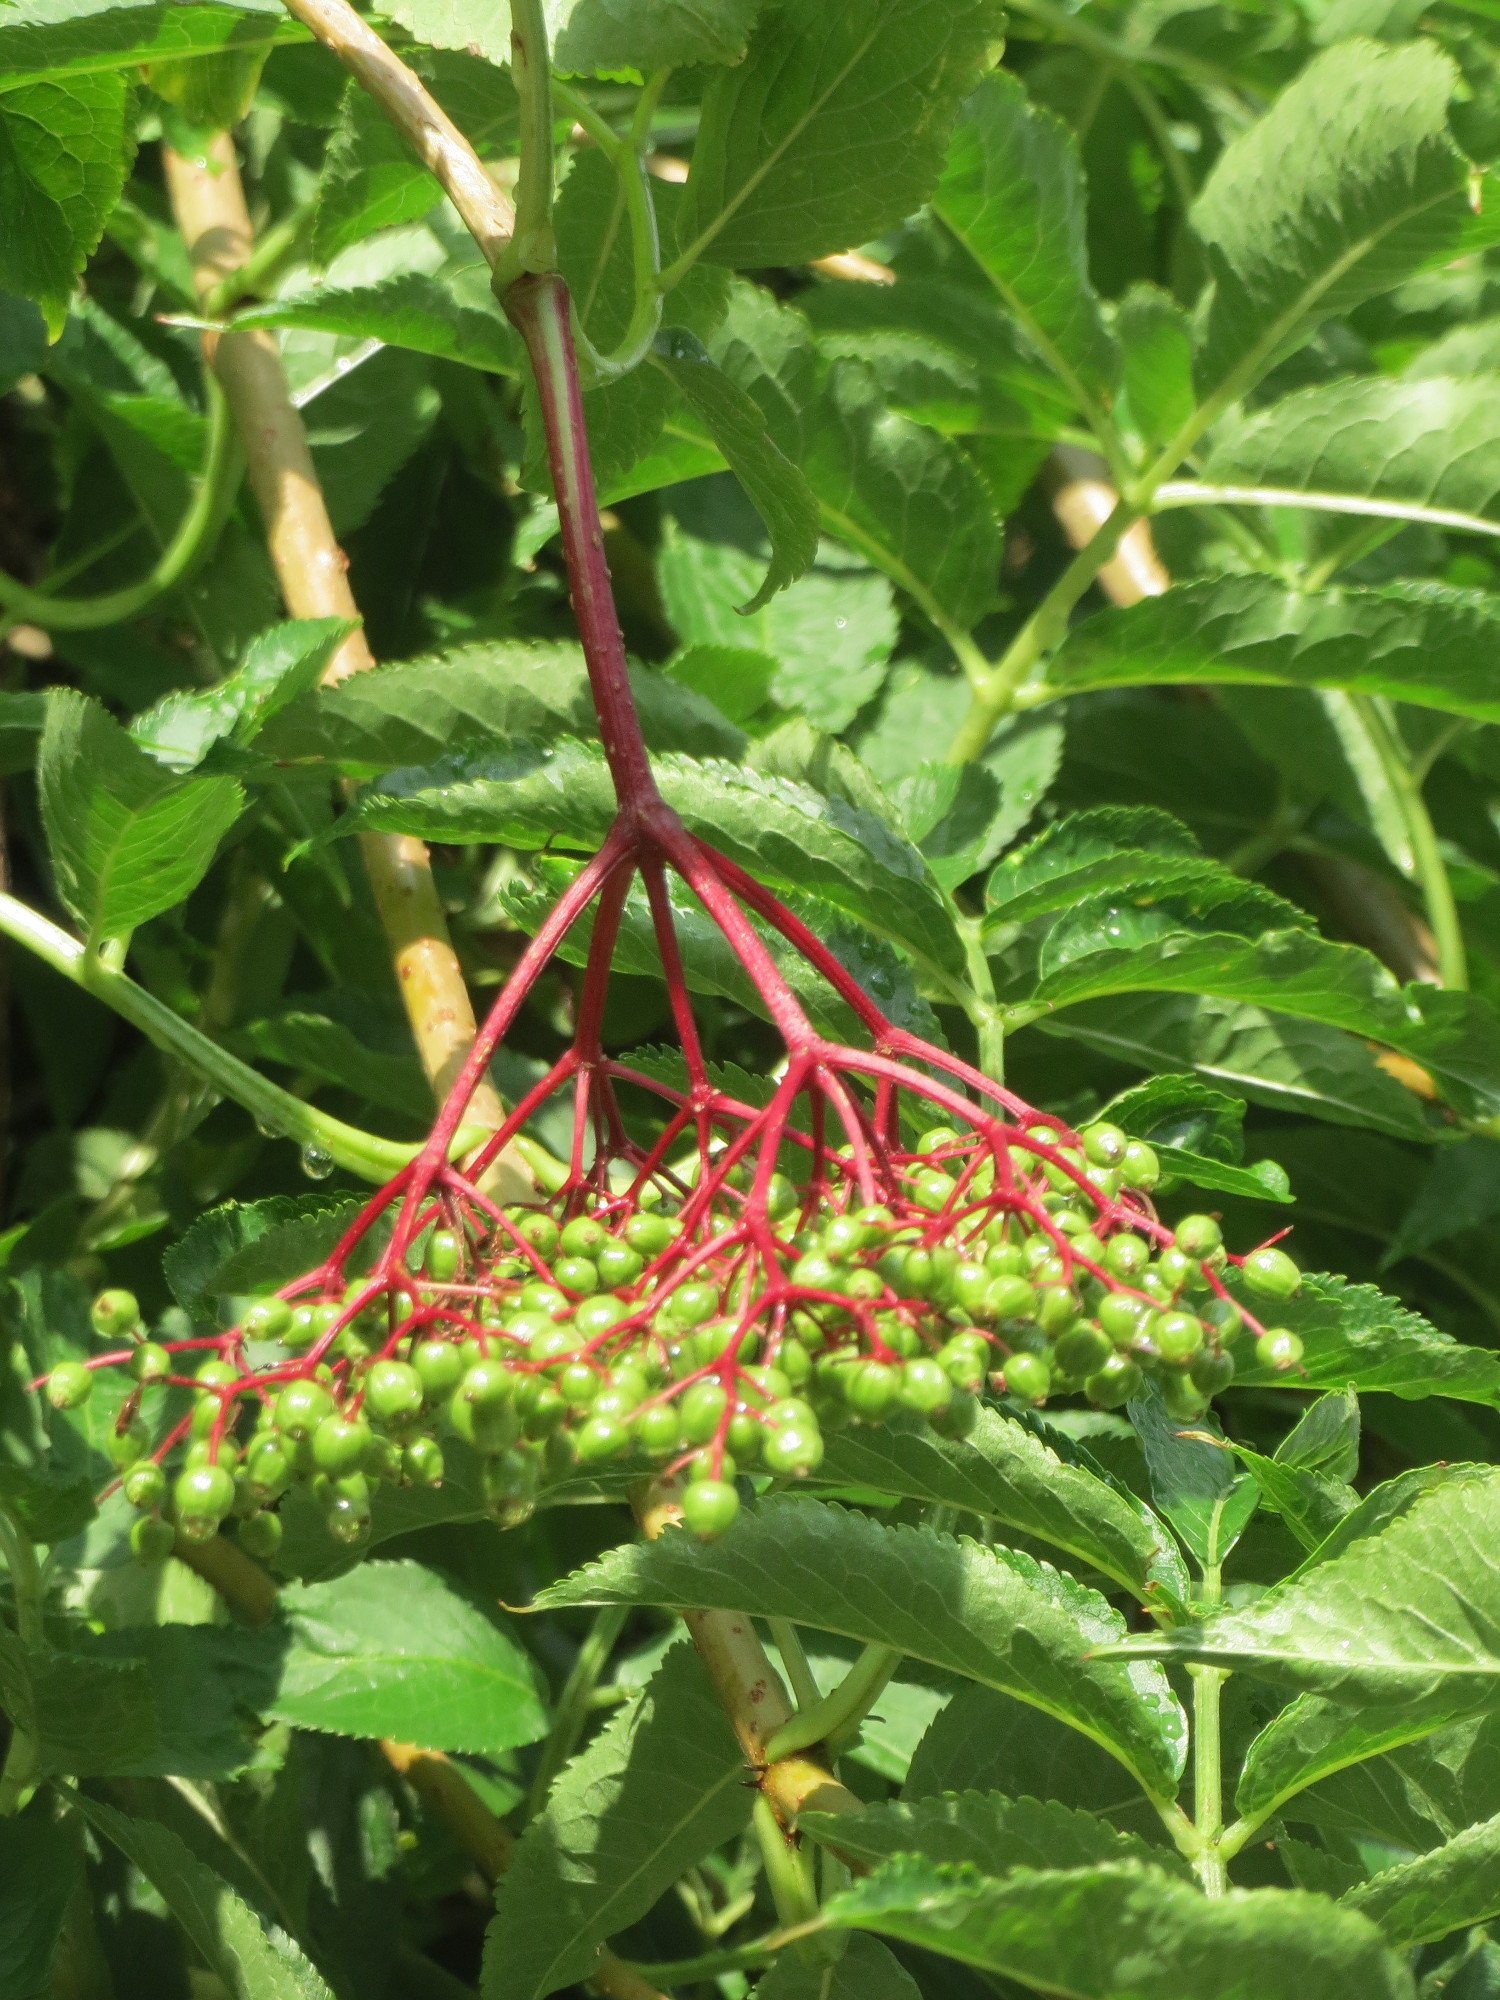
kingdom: Plantae
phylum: Tracheophyta
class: Magnoliopsida
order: Dipsacales
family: Viburnaceae
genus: Sambucus
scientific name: Sambucus nigra
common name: Elder
